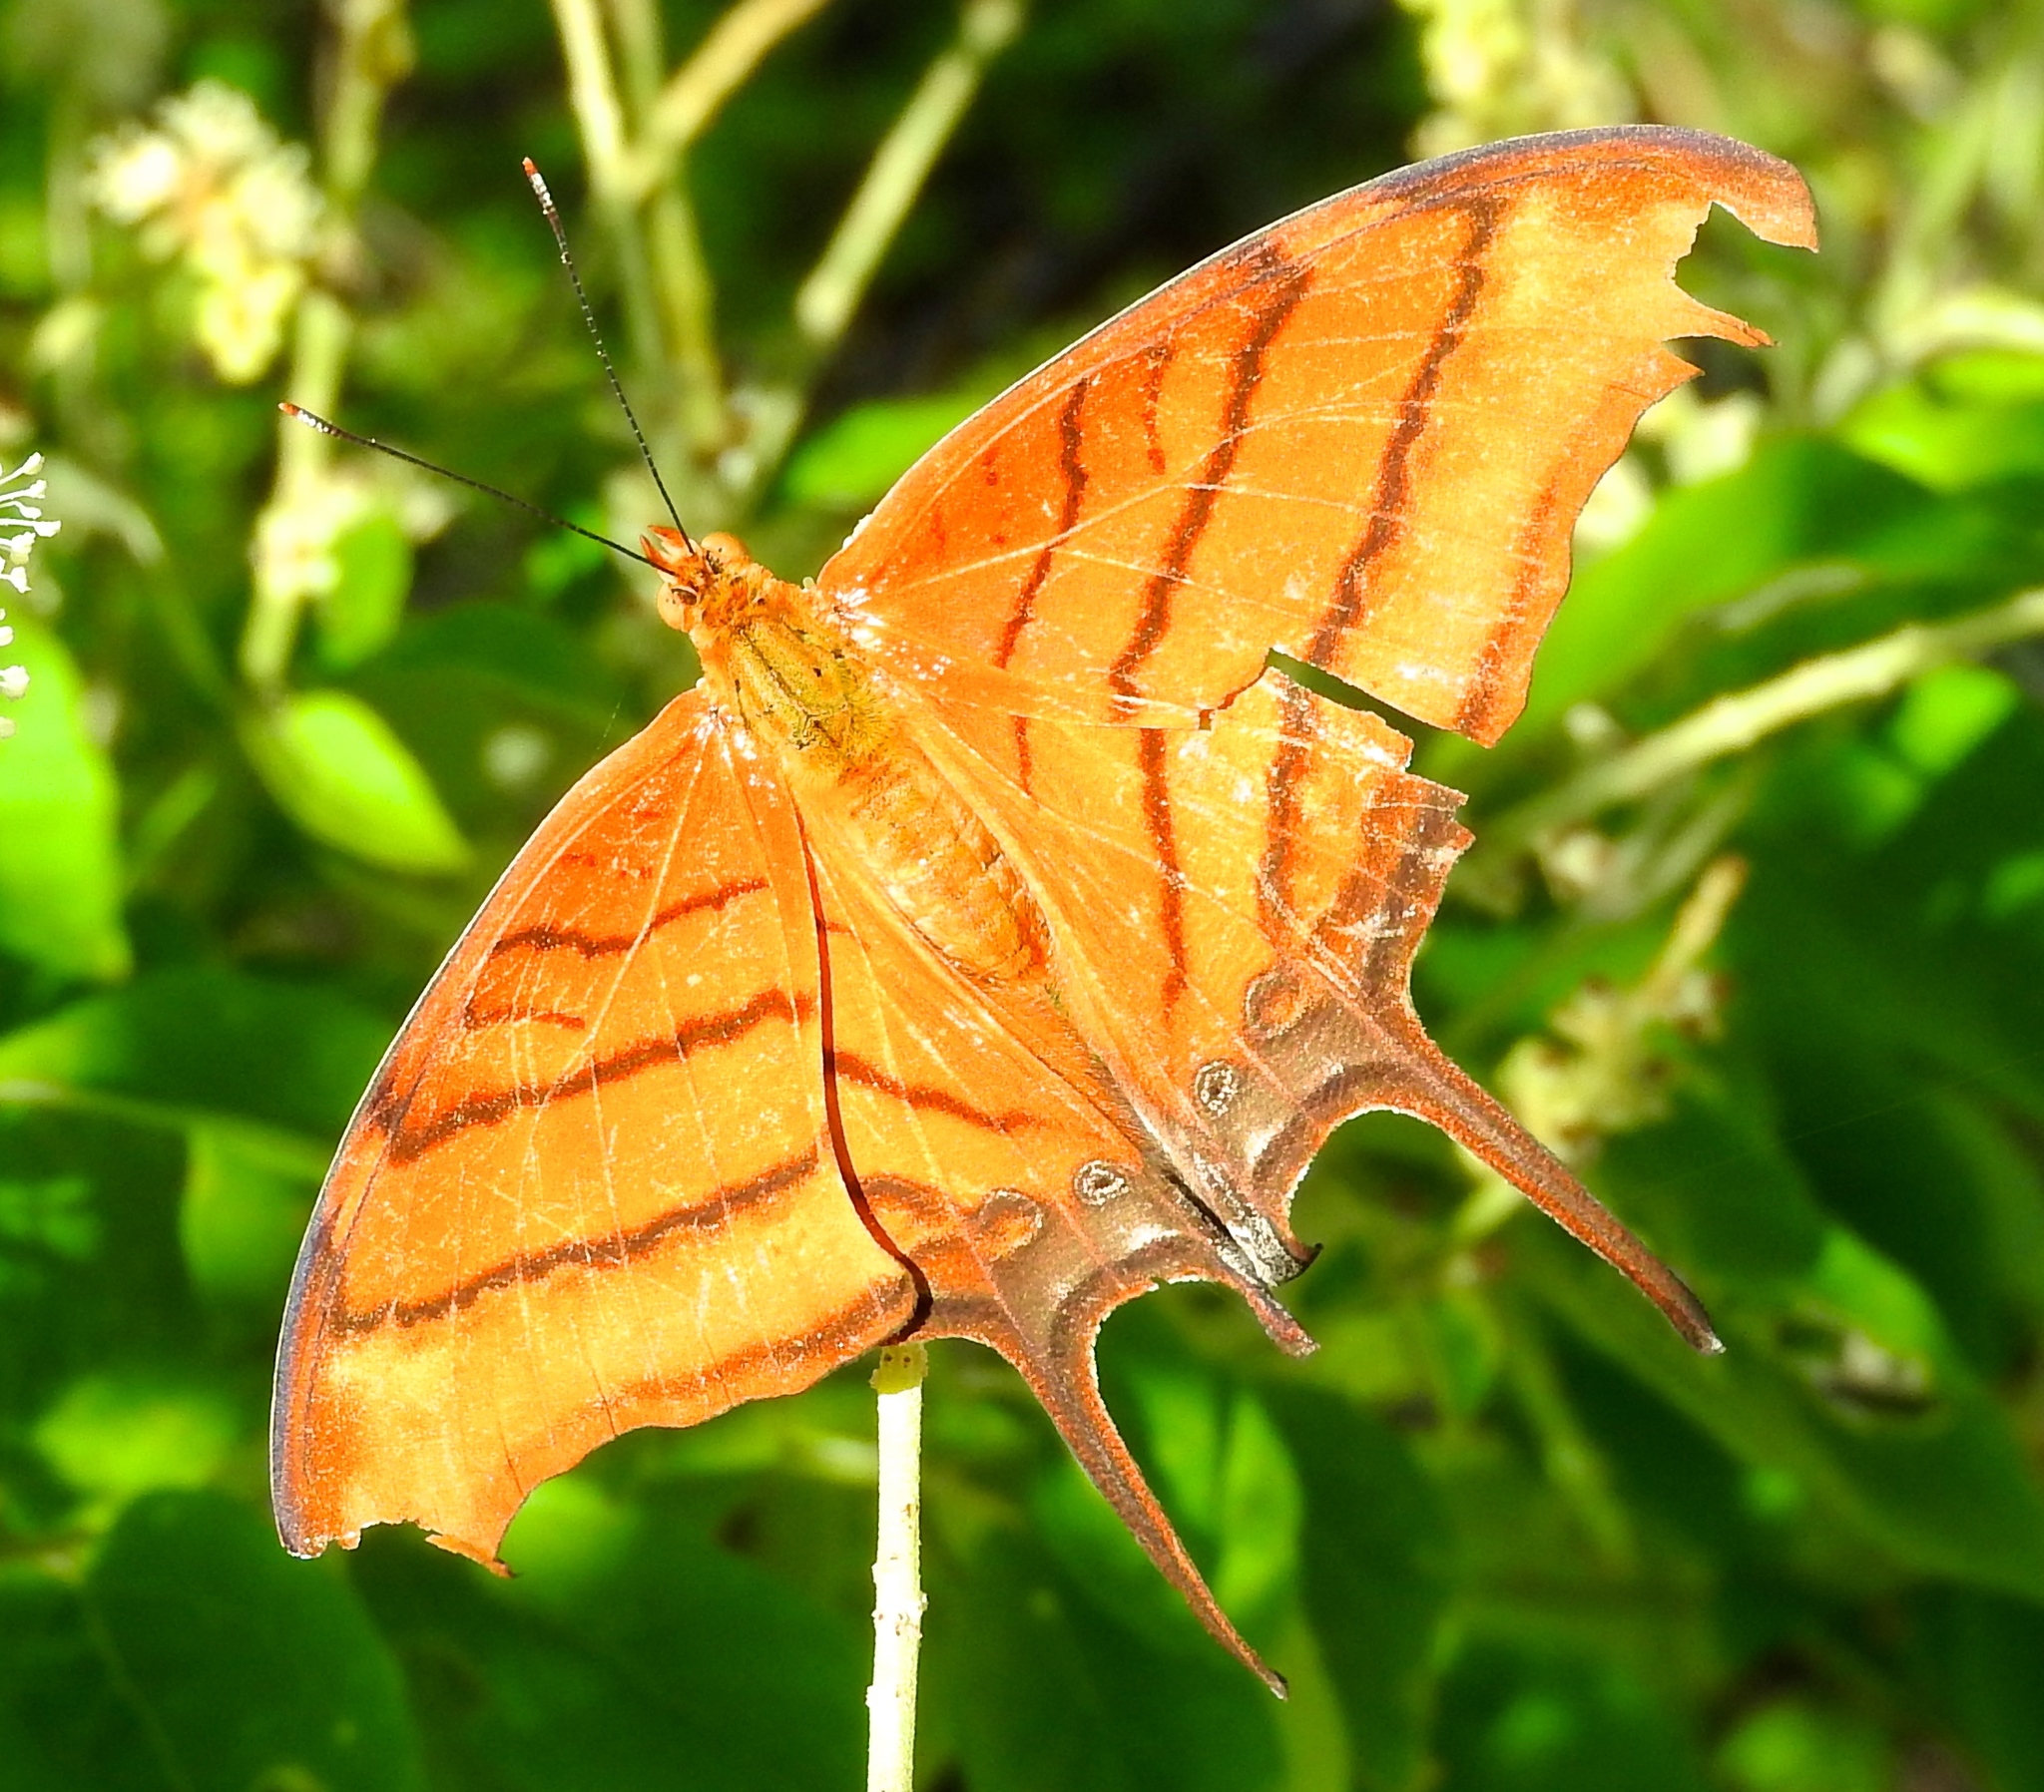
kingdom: Animalia
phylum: Arthropoda
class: Insecta
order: Lepidoptera
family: Nymphalidae
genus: Marpesia
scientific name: Marpesia petreus
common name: Red dagger wing
